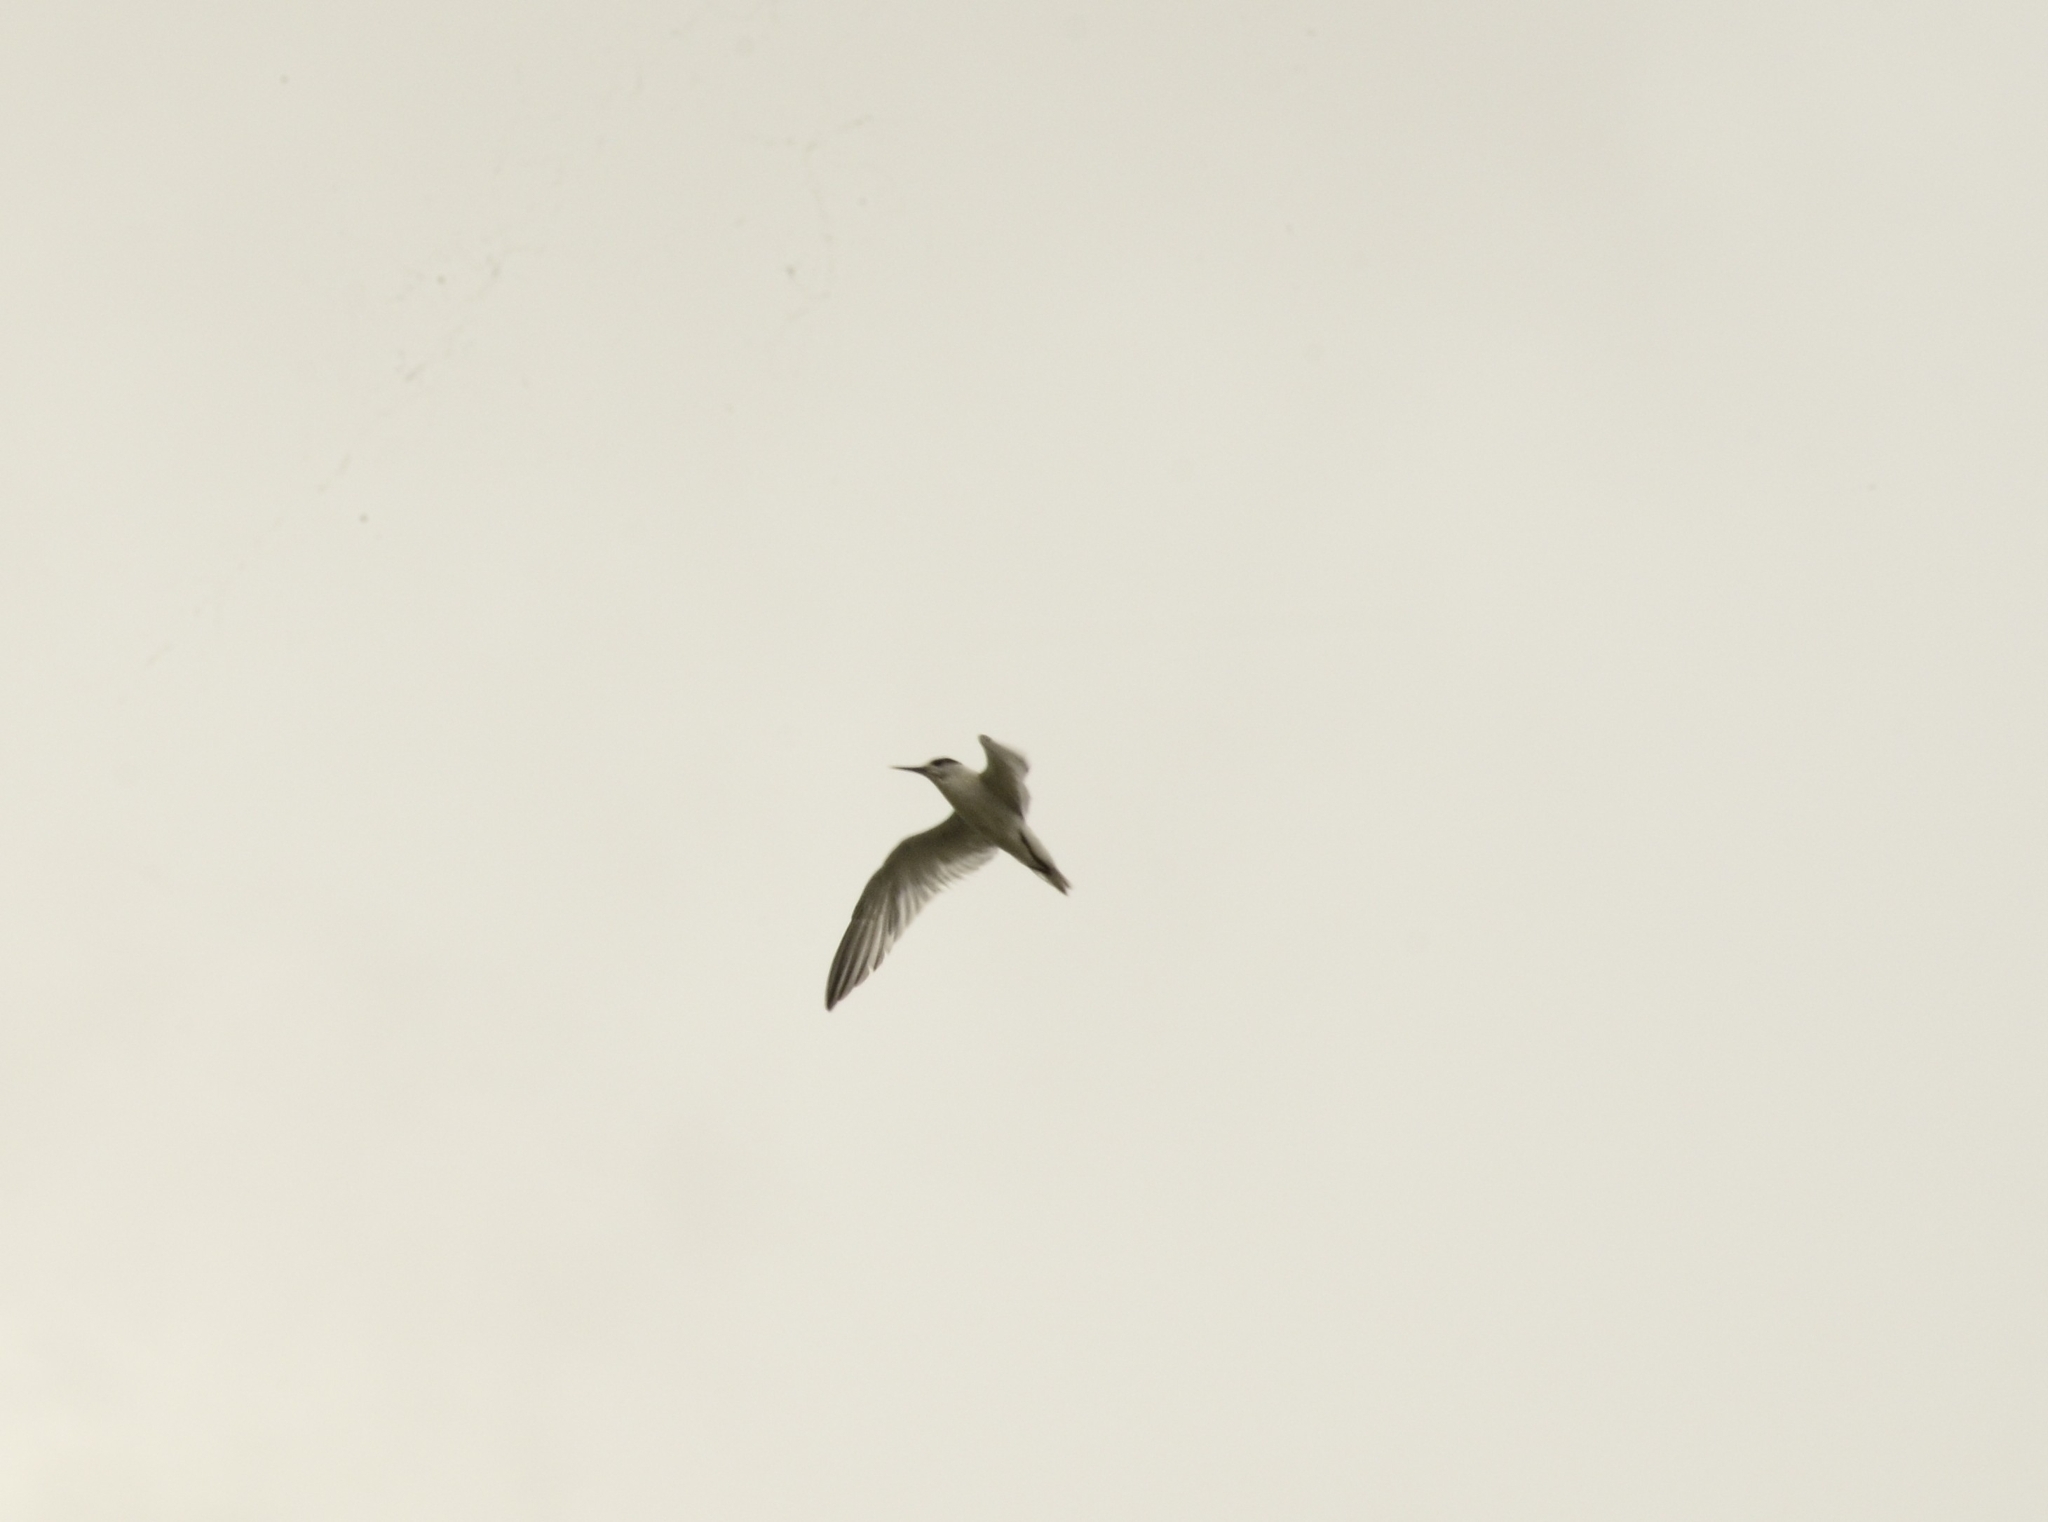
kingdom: Animalia
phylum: Chordata
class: Aves
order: Charadriiformes
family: Laridae
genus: Chlidonias
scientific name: Chlidonias hybrida
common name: Whiskered tern
